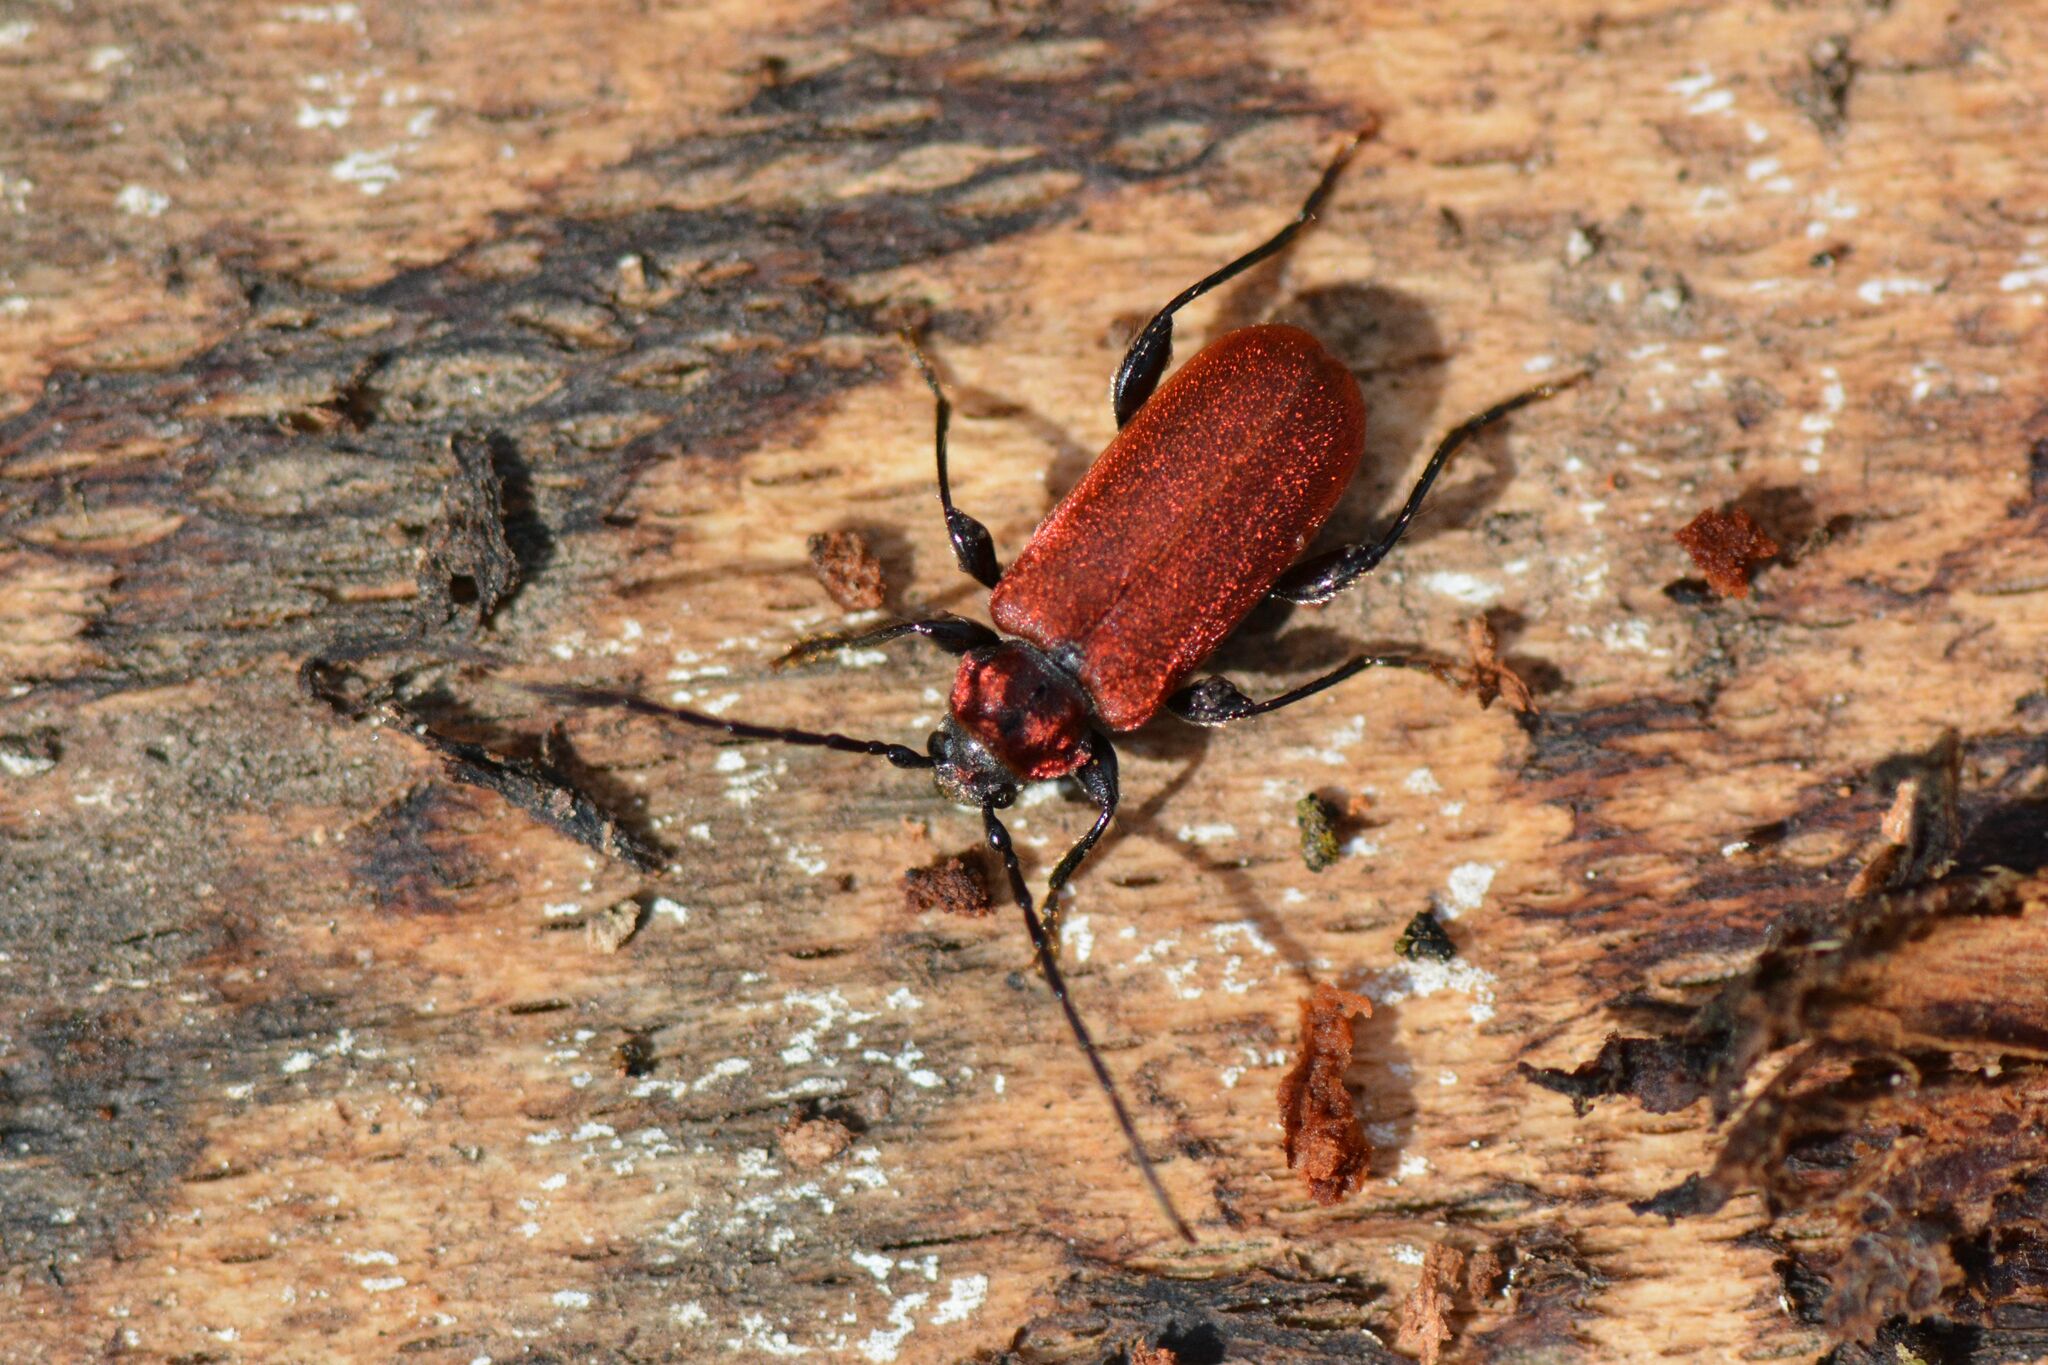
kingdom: Animalia
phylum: Arthropoda
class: Insecta
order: Coleoptera
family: Cerambycidae
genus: Pyrrhidium
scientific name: Pyrrhidium sanguineum
